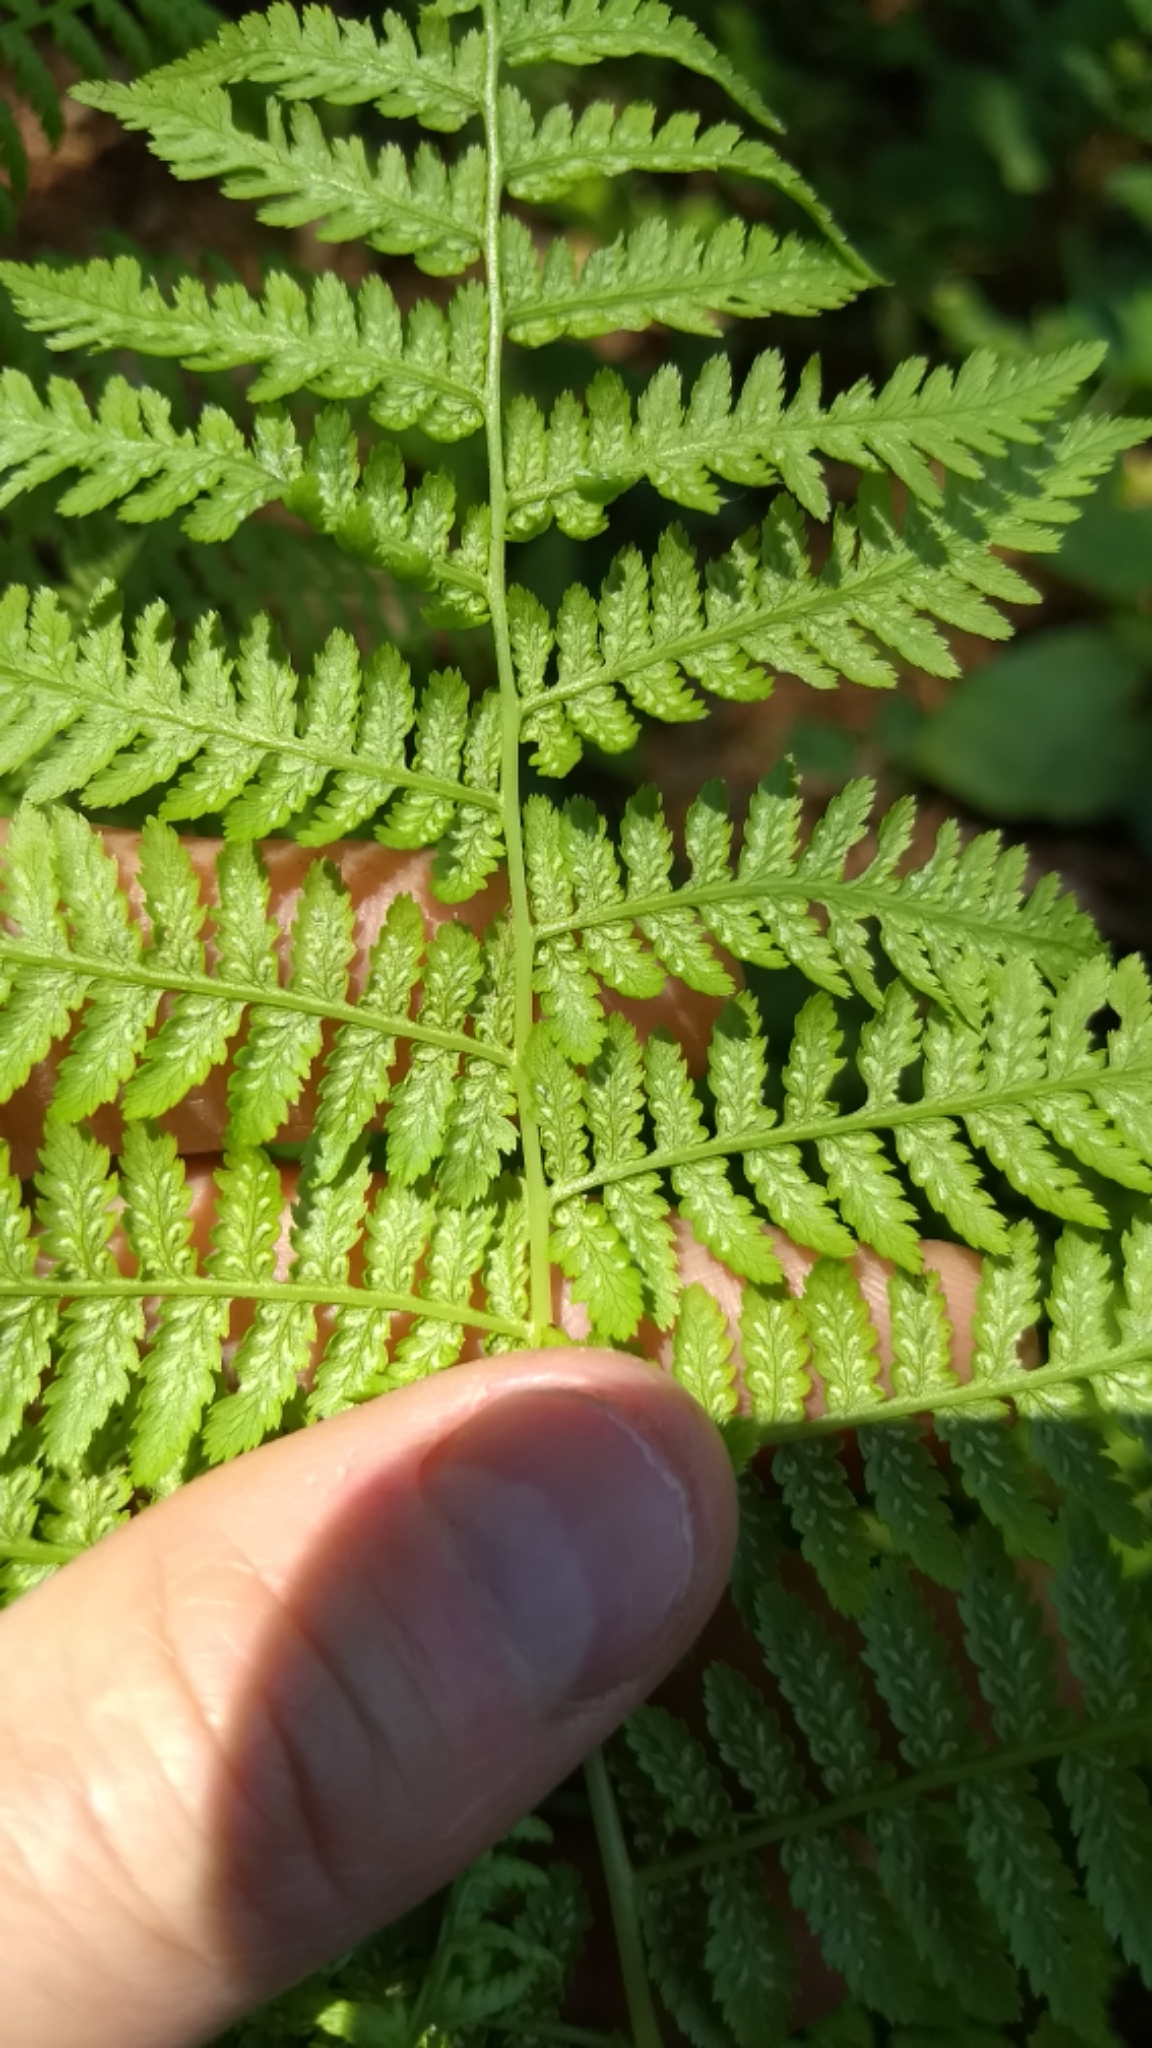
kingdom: Plantae
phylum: Tracheophyta
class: Polypodiopsida
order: Polypodiales
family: Athyriaceae
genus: Athyrium
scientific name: Athyrium angustum
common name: Northern lady fern
